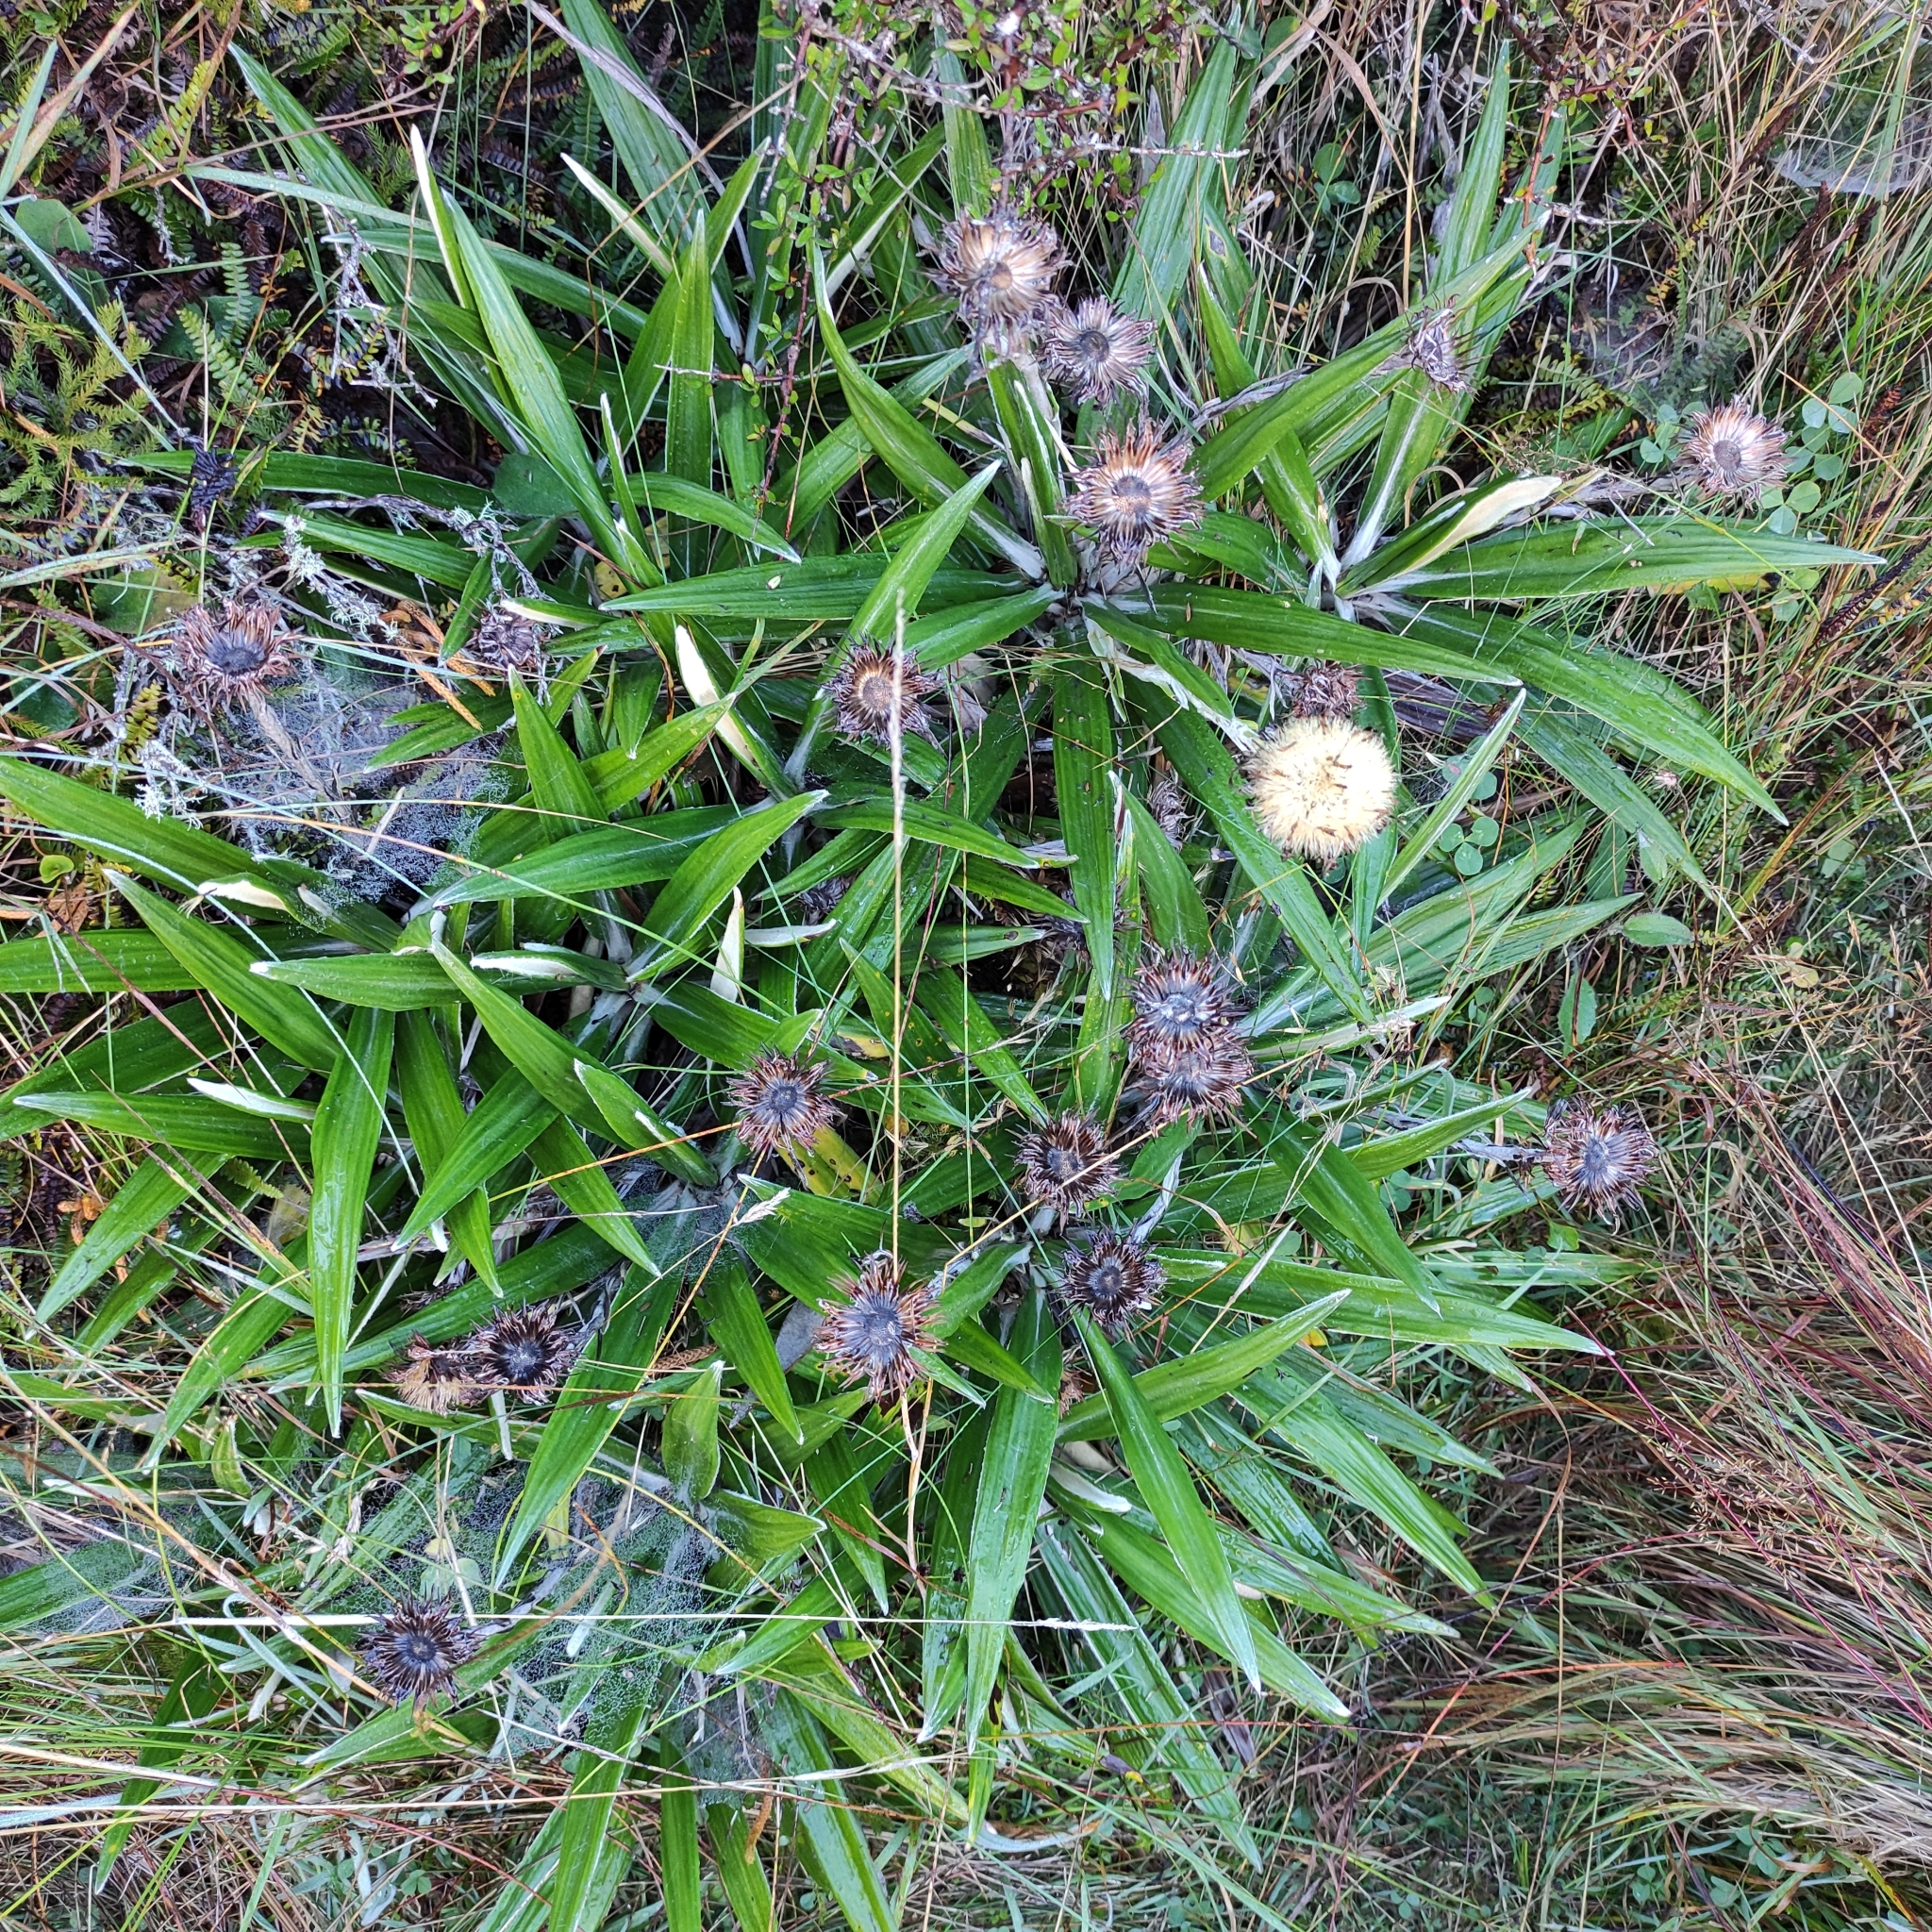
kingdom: Plantae
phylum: Tracheophyta
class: Magnoliopsida
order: Asterales
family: Asteraceae
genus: Celmisia
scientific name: Celmisia spectabilis
